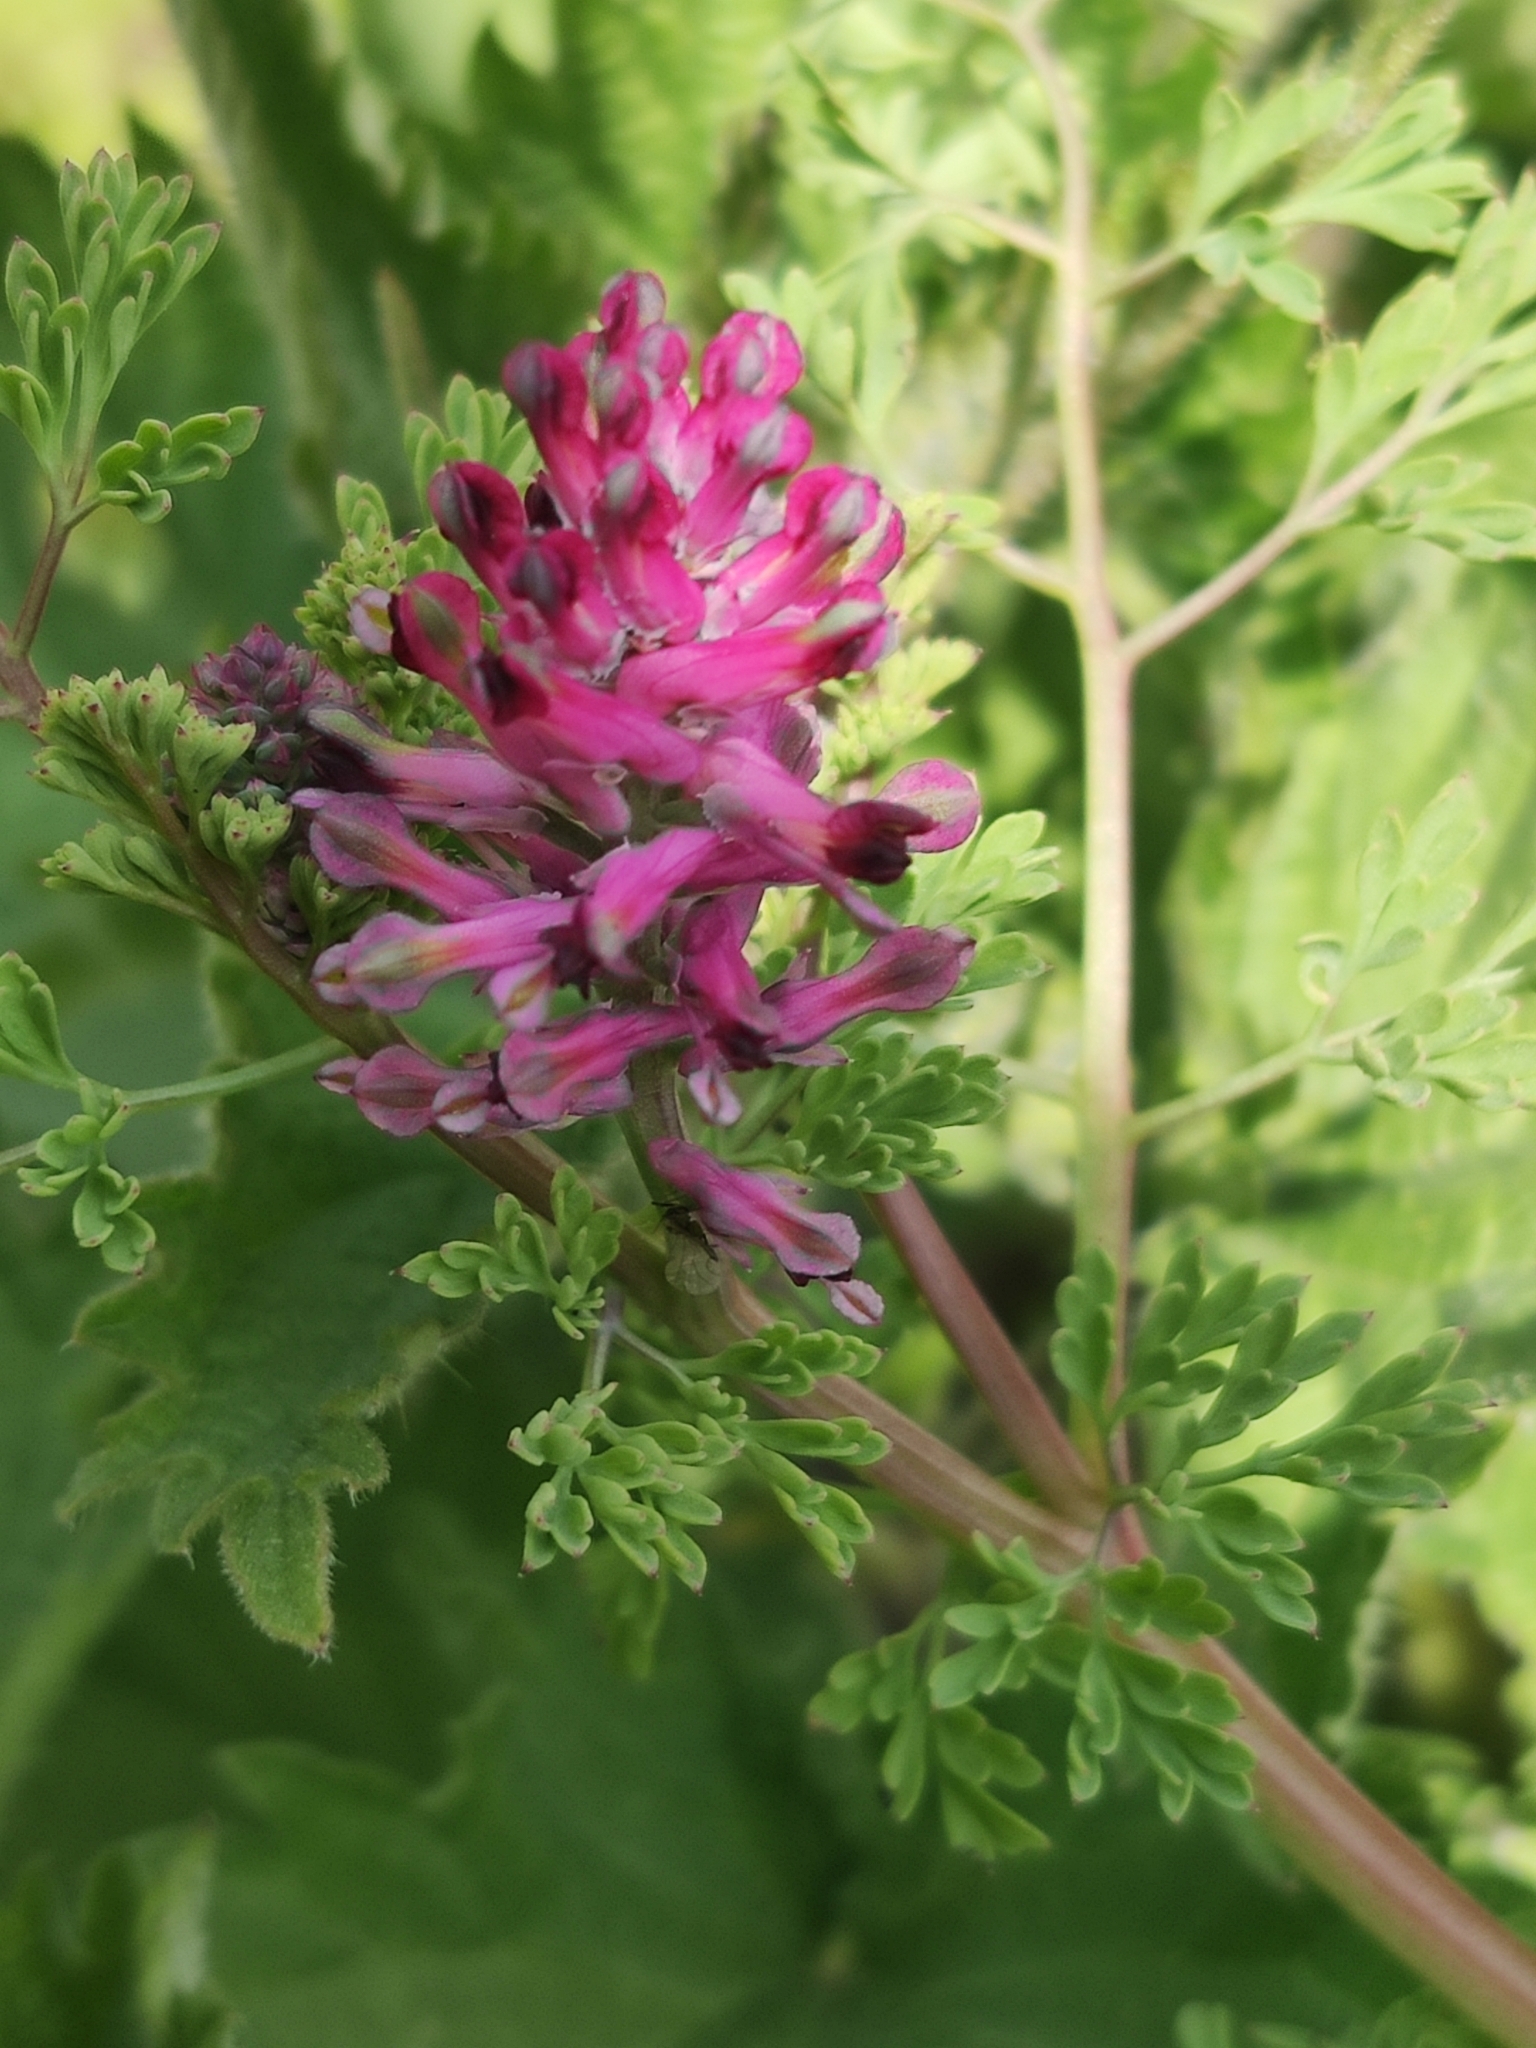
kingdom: Plantae
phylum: Tracheophyta
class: Magnoliopsida
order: Ranunculales
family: Papaveraceae
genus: Fumaria
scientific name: Fumaria officinalis
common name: Common fumitory
